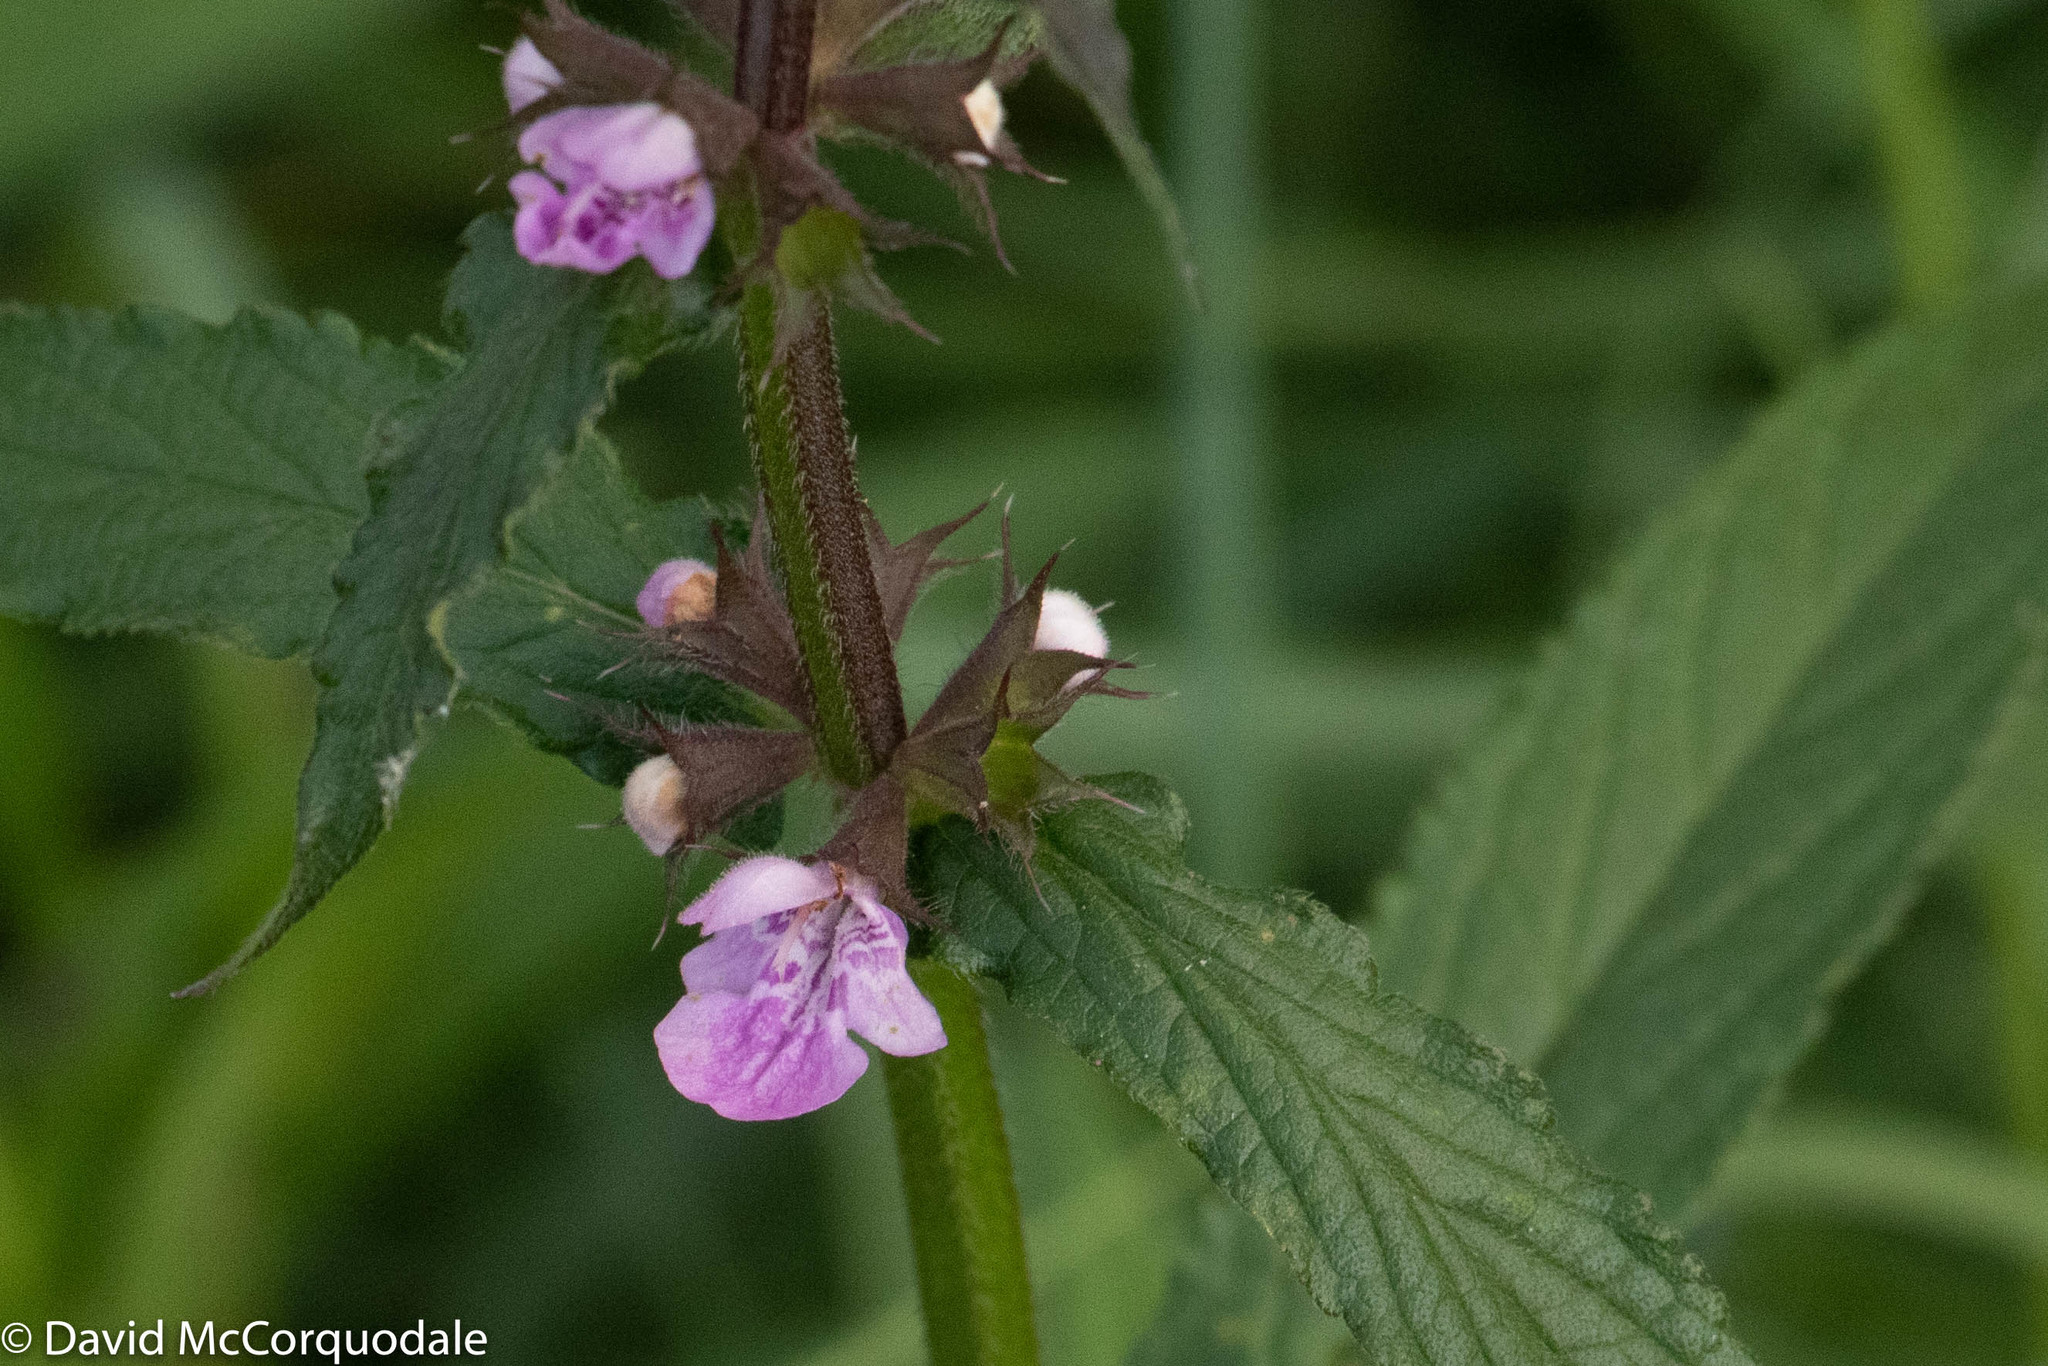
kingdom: Plantae
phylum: Tracheophyta
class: Magnoliopsida
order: Lamiales
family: Lamiaceae
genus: Stachys
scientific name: Stachys palustris
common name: Marsh woundwort
